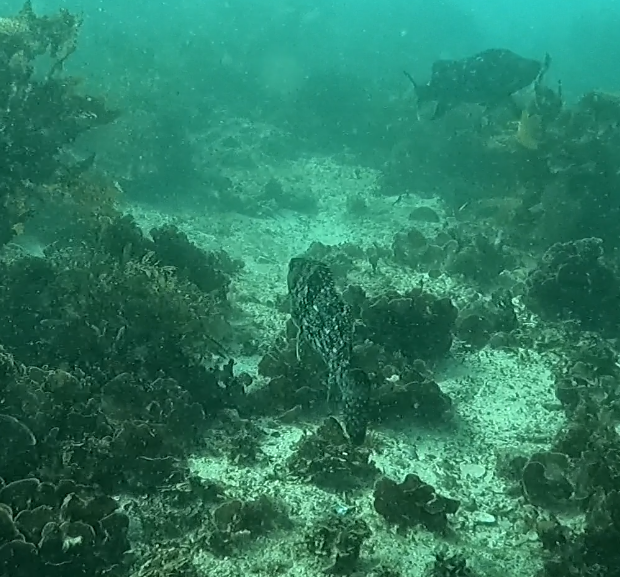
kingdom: Animalia
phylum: Chordata
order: Perciformes
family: Aplodactylidae
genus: Aplodactylus
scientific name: Aplodactylus lophodon
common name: Cockatoo fish
